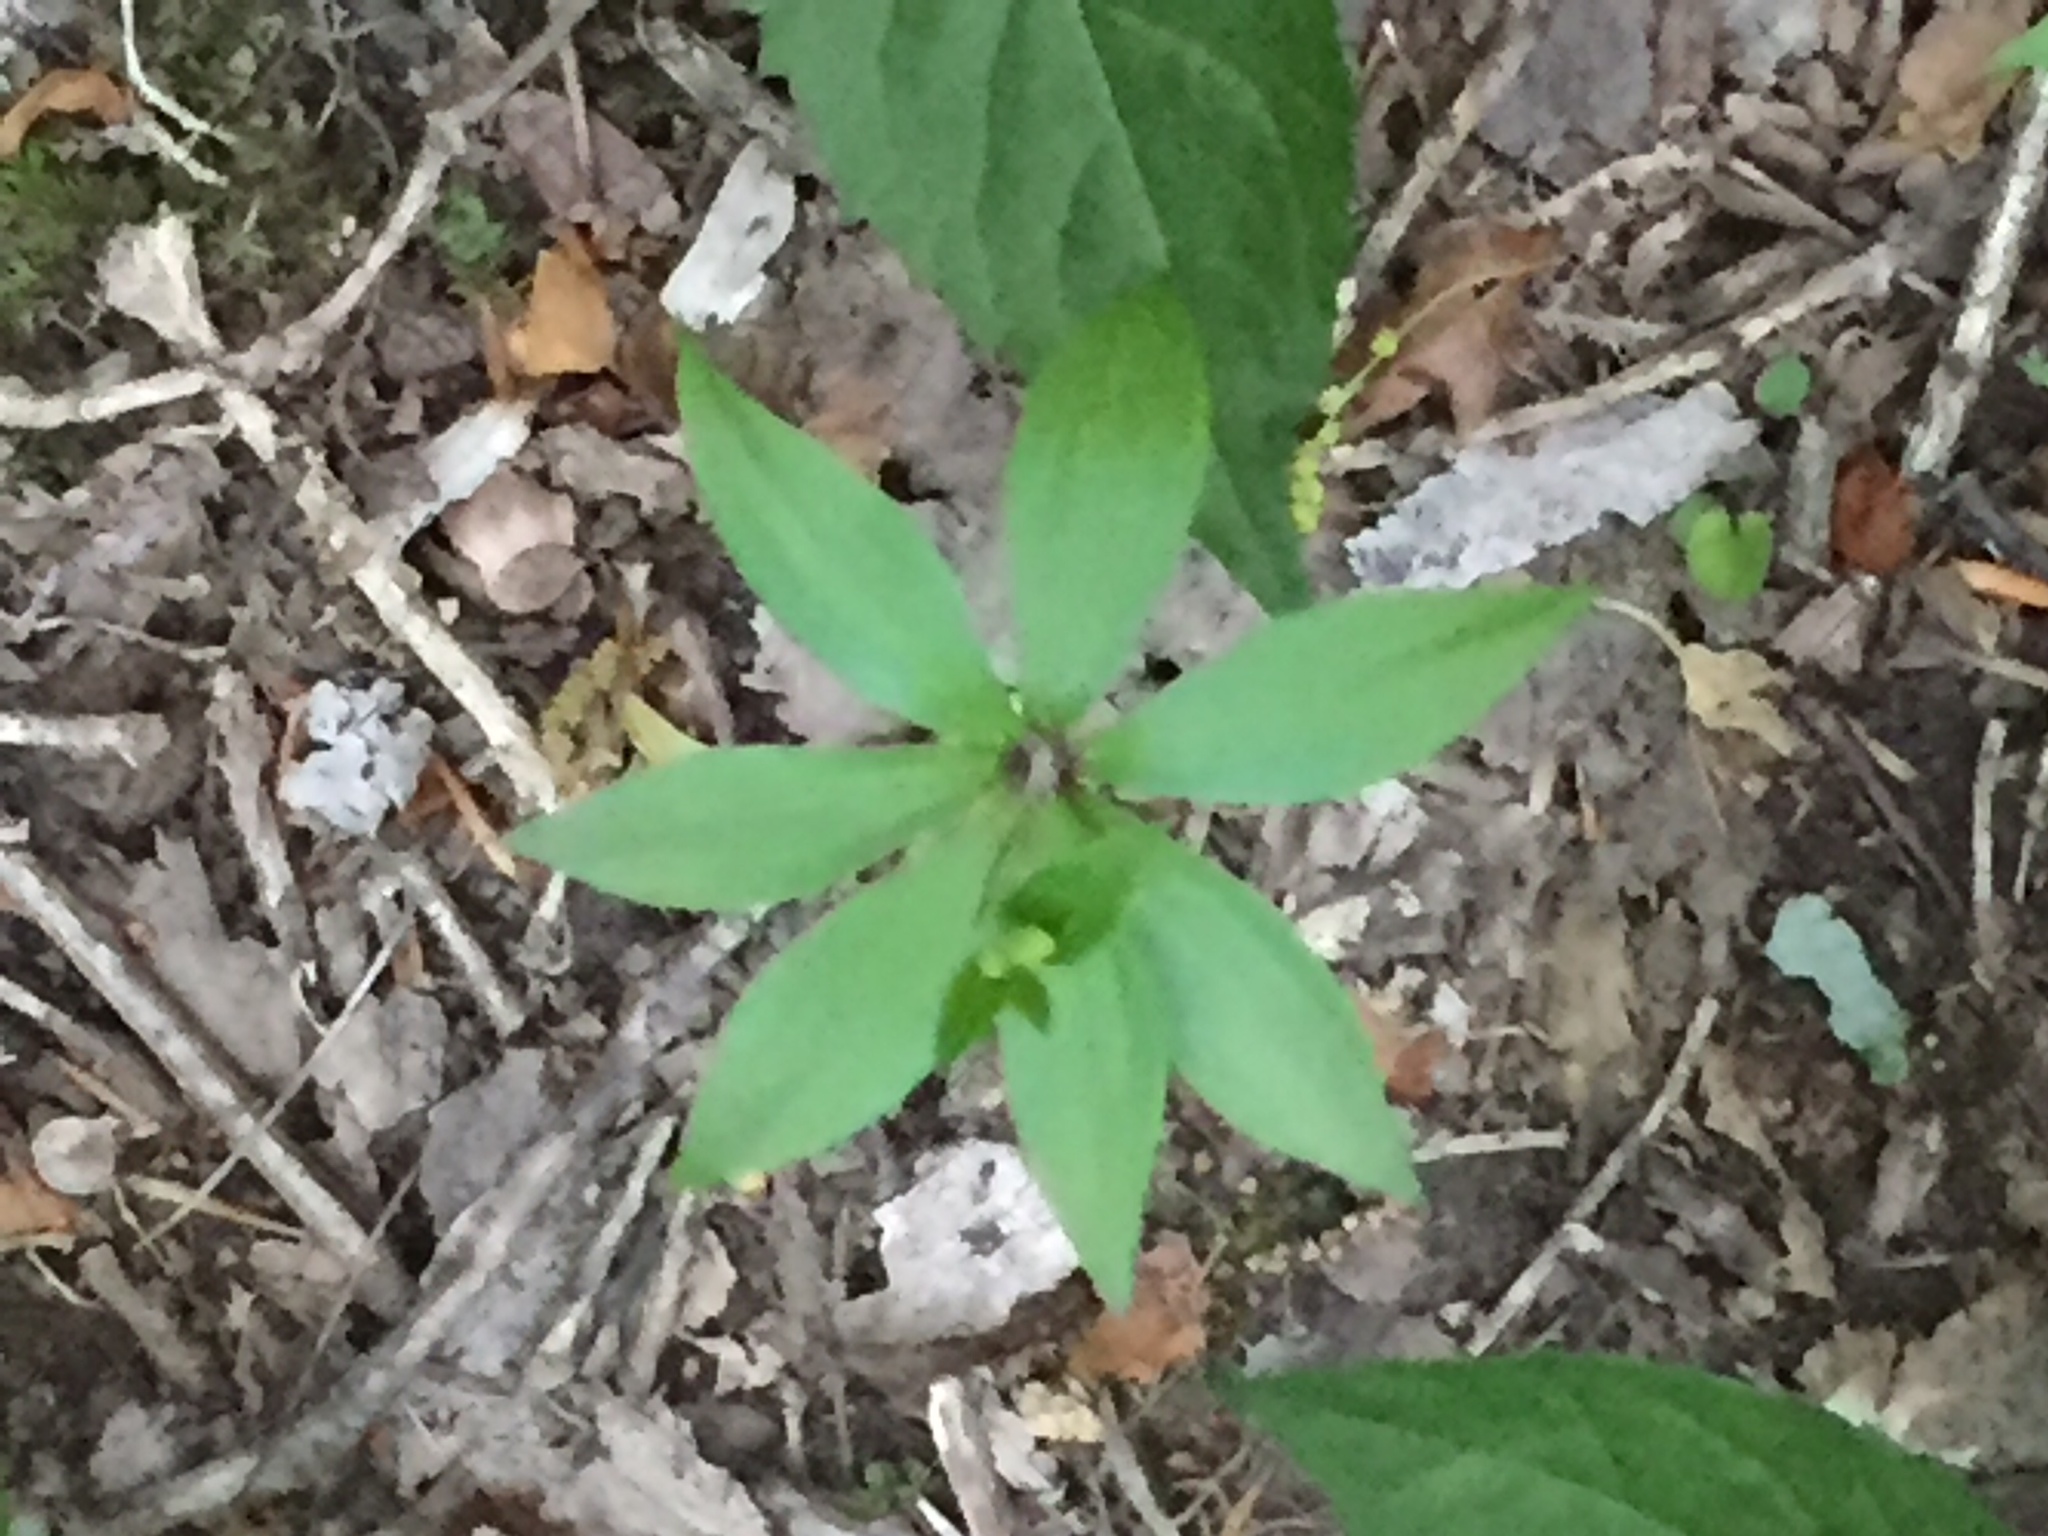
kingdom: Plantae
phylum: Tracheophyta
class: Liliopsida
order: Liliales
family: Liliaceae
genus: Medeola
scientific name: Medeola virginiana
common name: Indian cucumber-root
